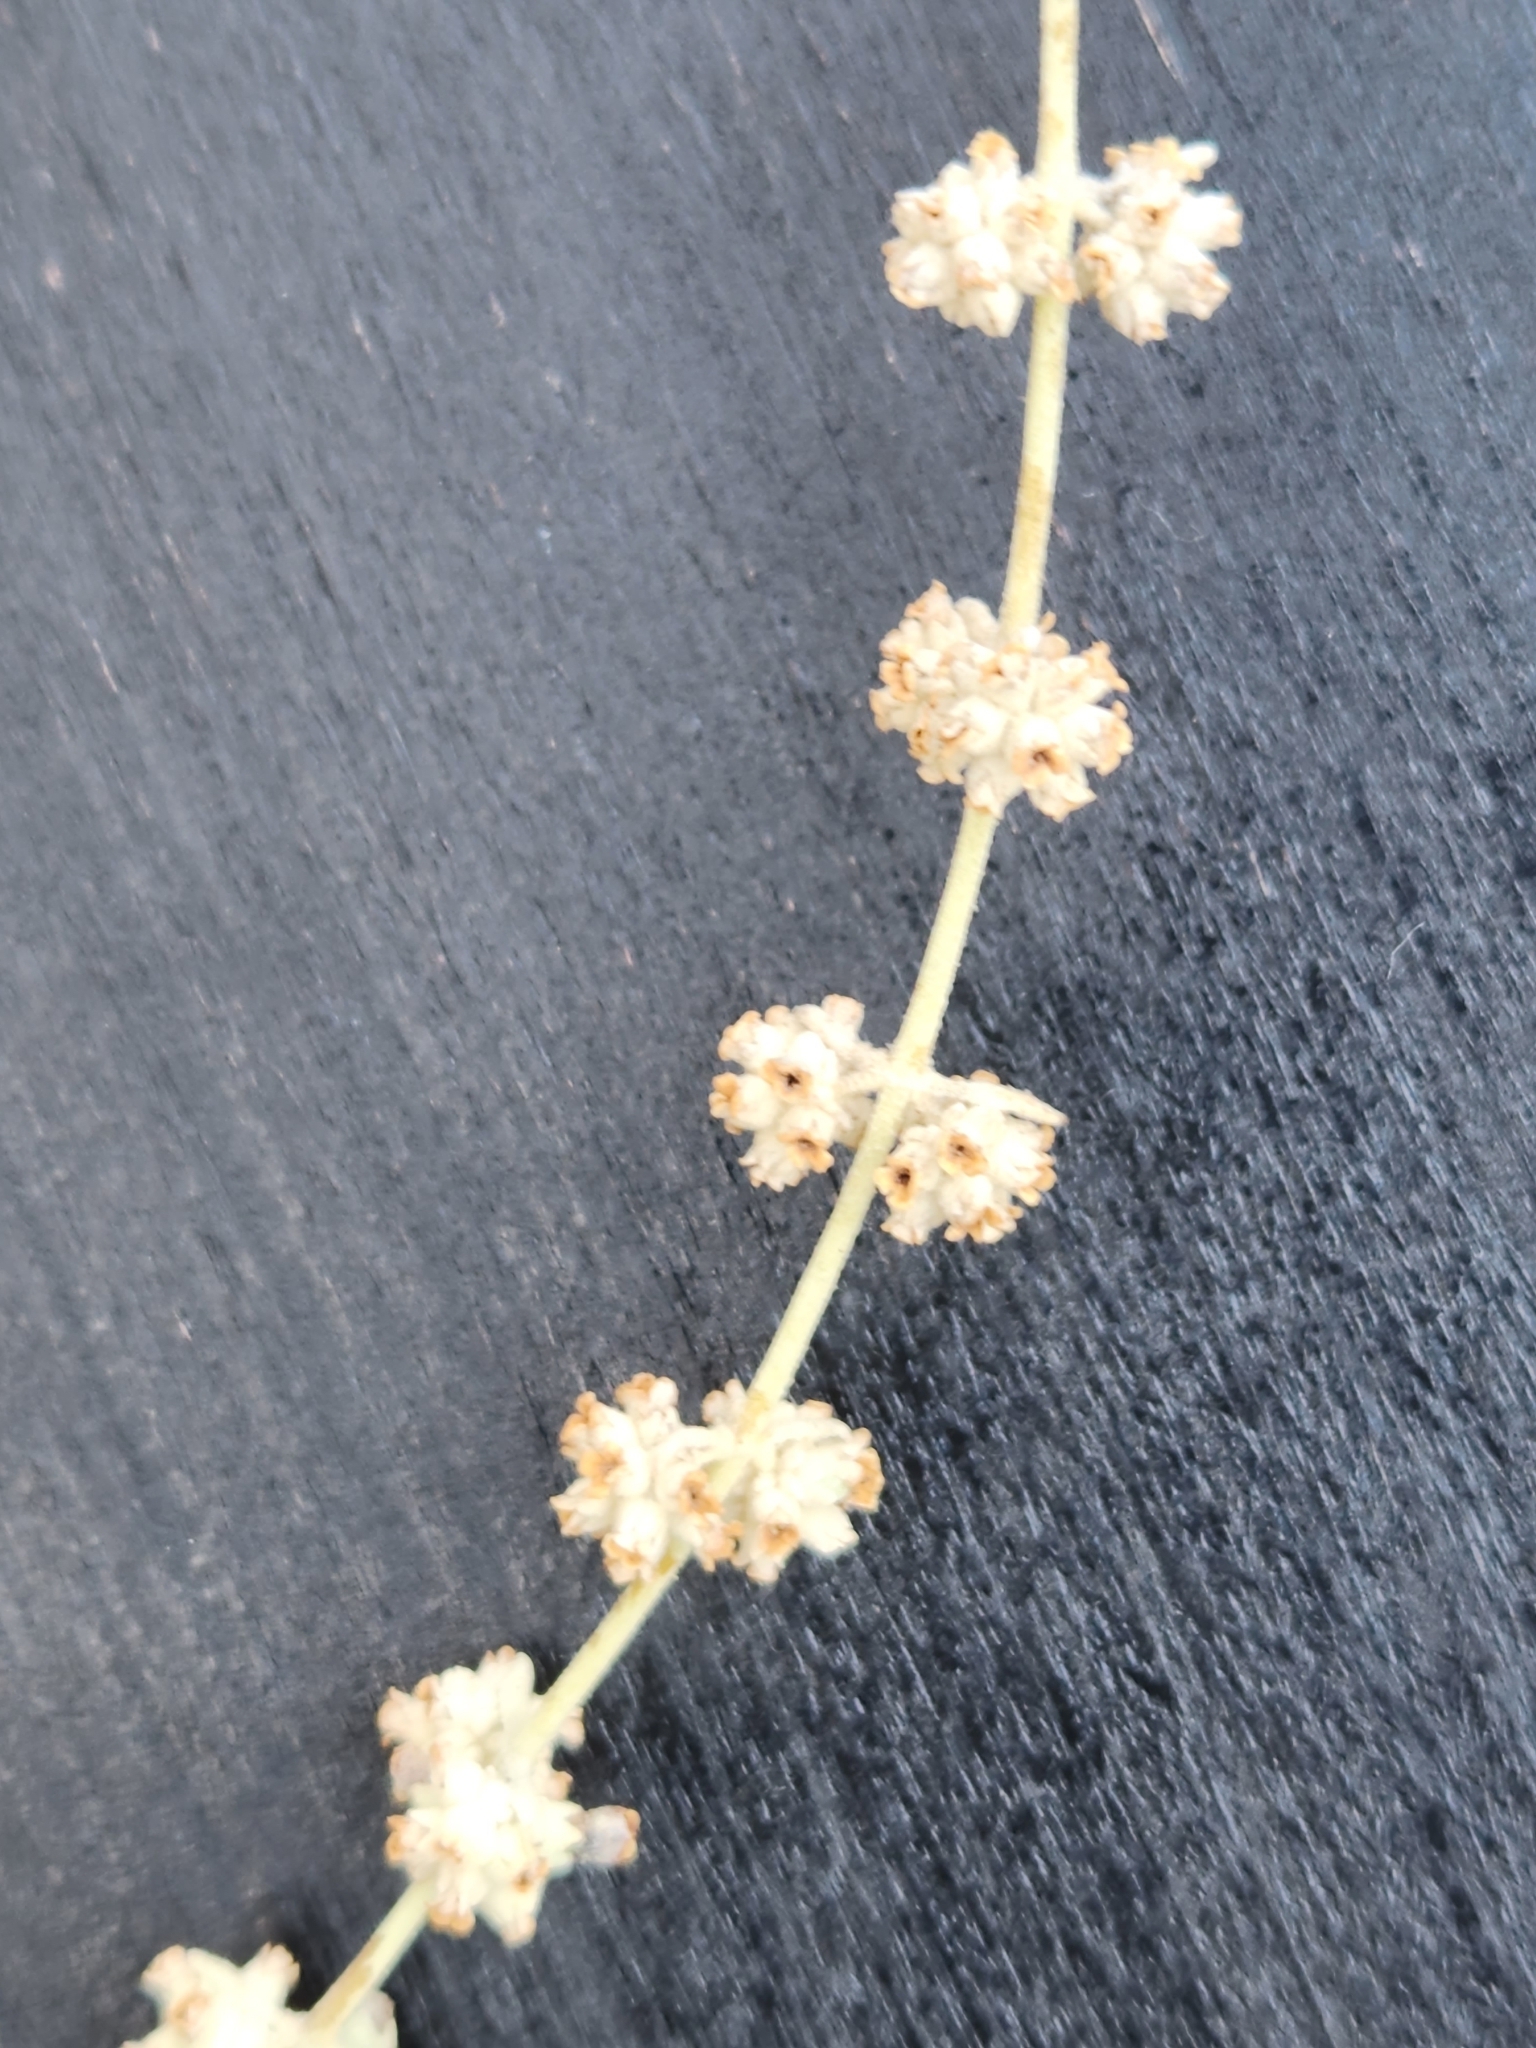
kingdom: Plantae
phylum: Tracheophyta
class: Magnoliopsida
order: Lamiales
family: Scrophulariaceae
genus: Buddleja
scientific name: Buddleja racemosa
